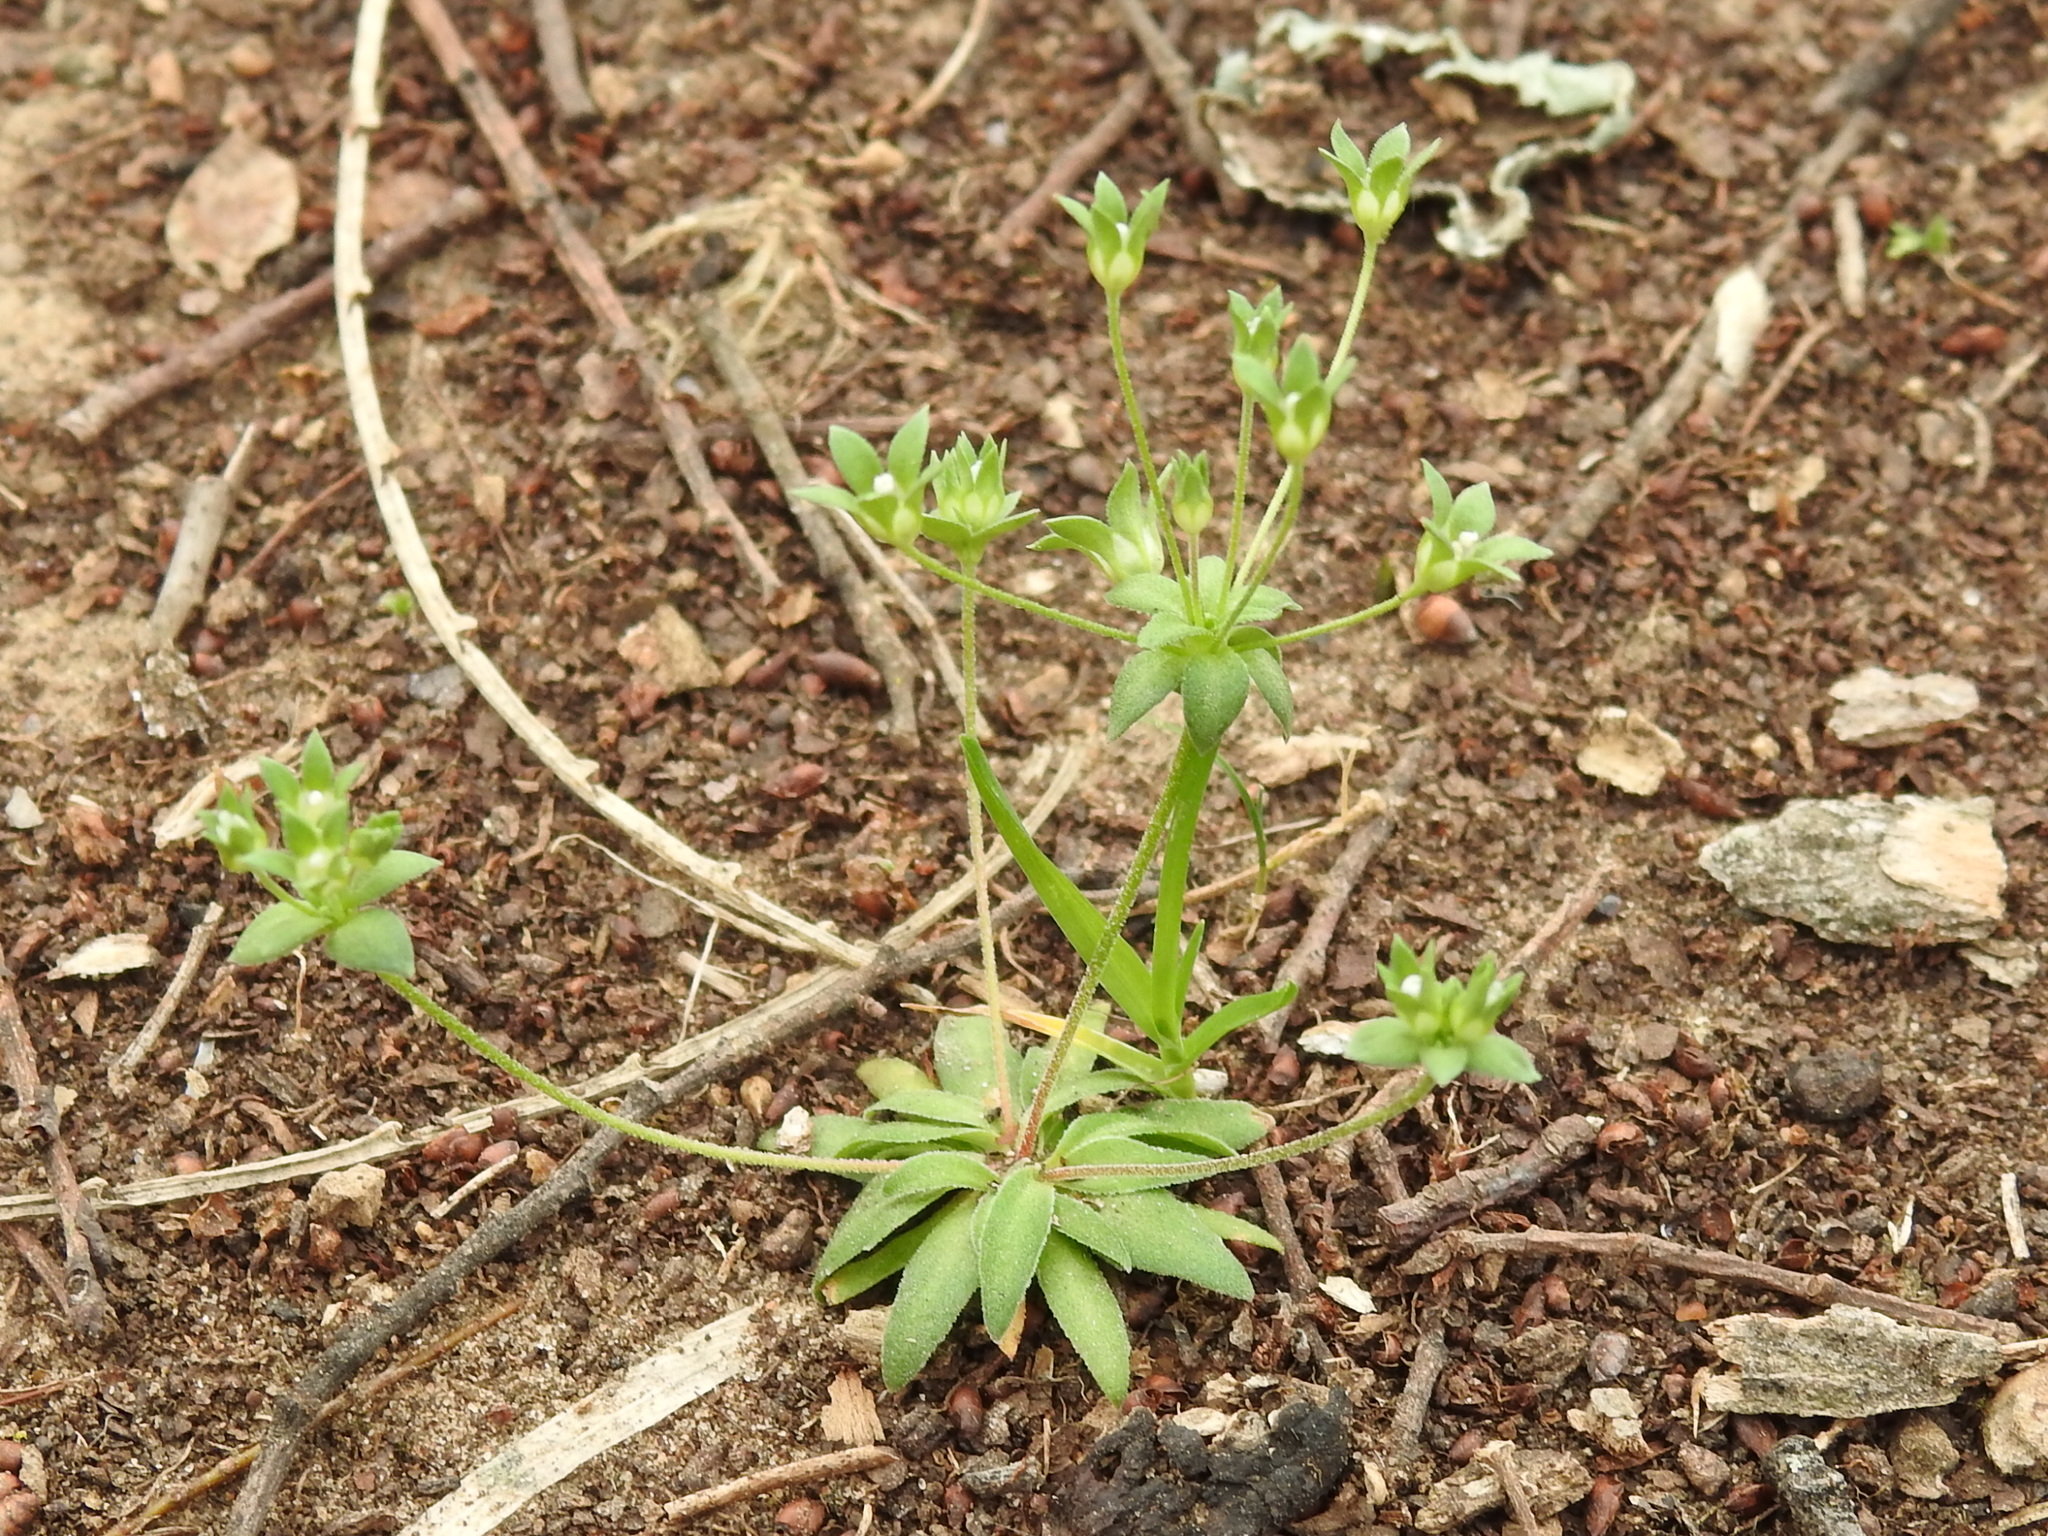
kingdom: Plantae
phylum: Tracheophyta
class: Magnoliopsida
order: Ericales
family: Primulaceae
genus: Androsace
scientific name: Androsace occidentalis
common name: West rock-jasmine
